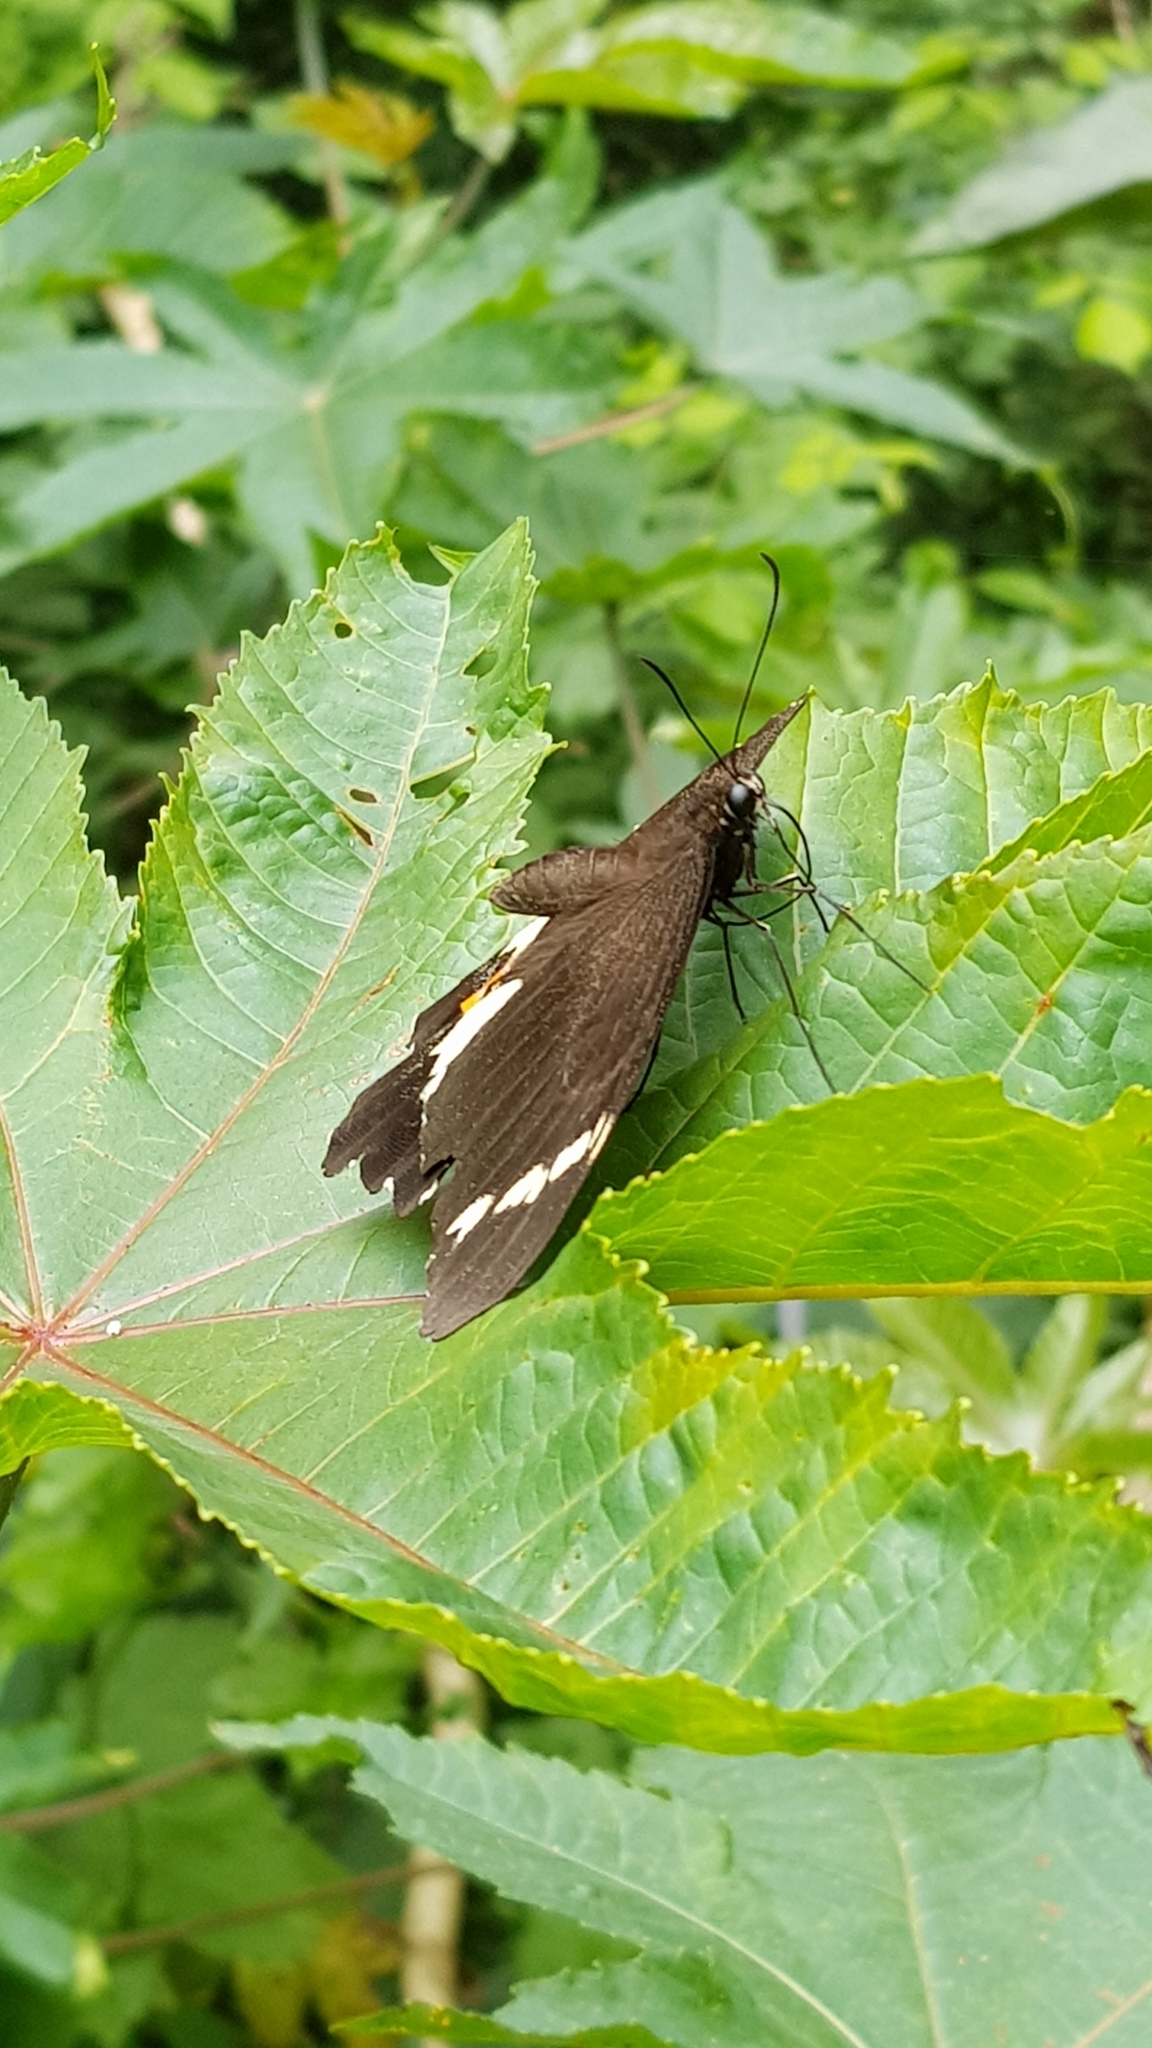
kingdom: Animalia
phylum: Arthropoda
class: Insecta
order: Lepidoptera
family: Papilionidae
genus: Papilio
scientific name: Papilio aegeus
